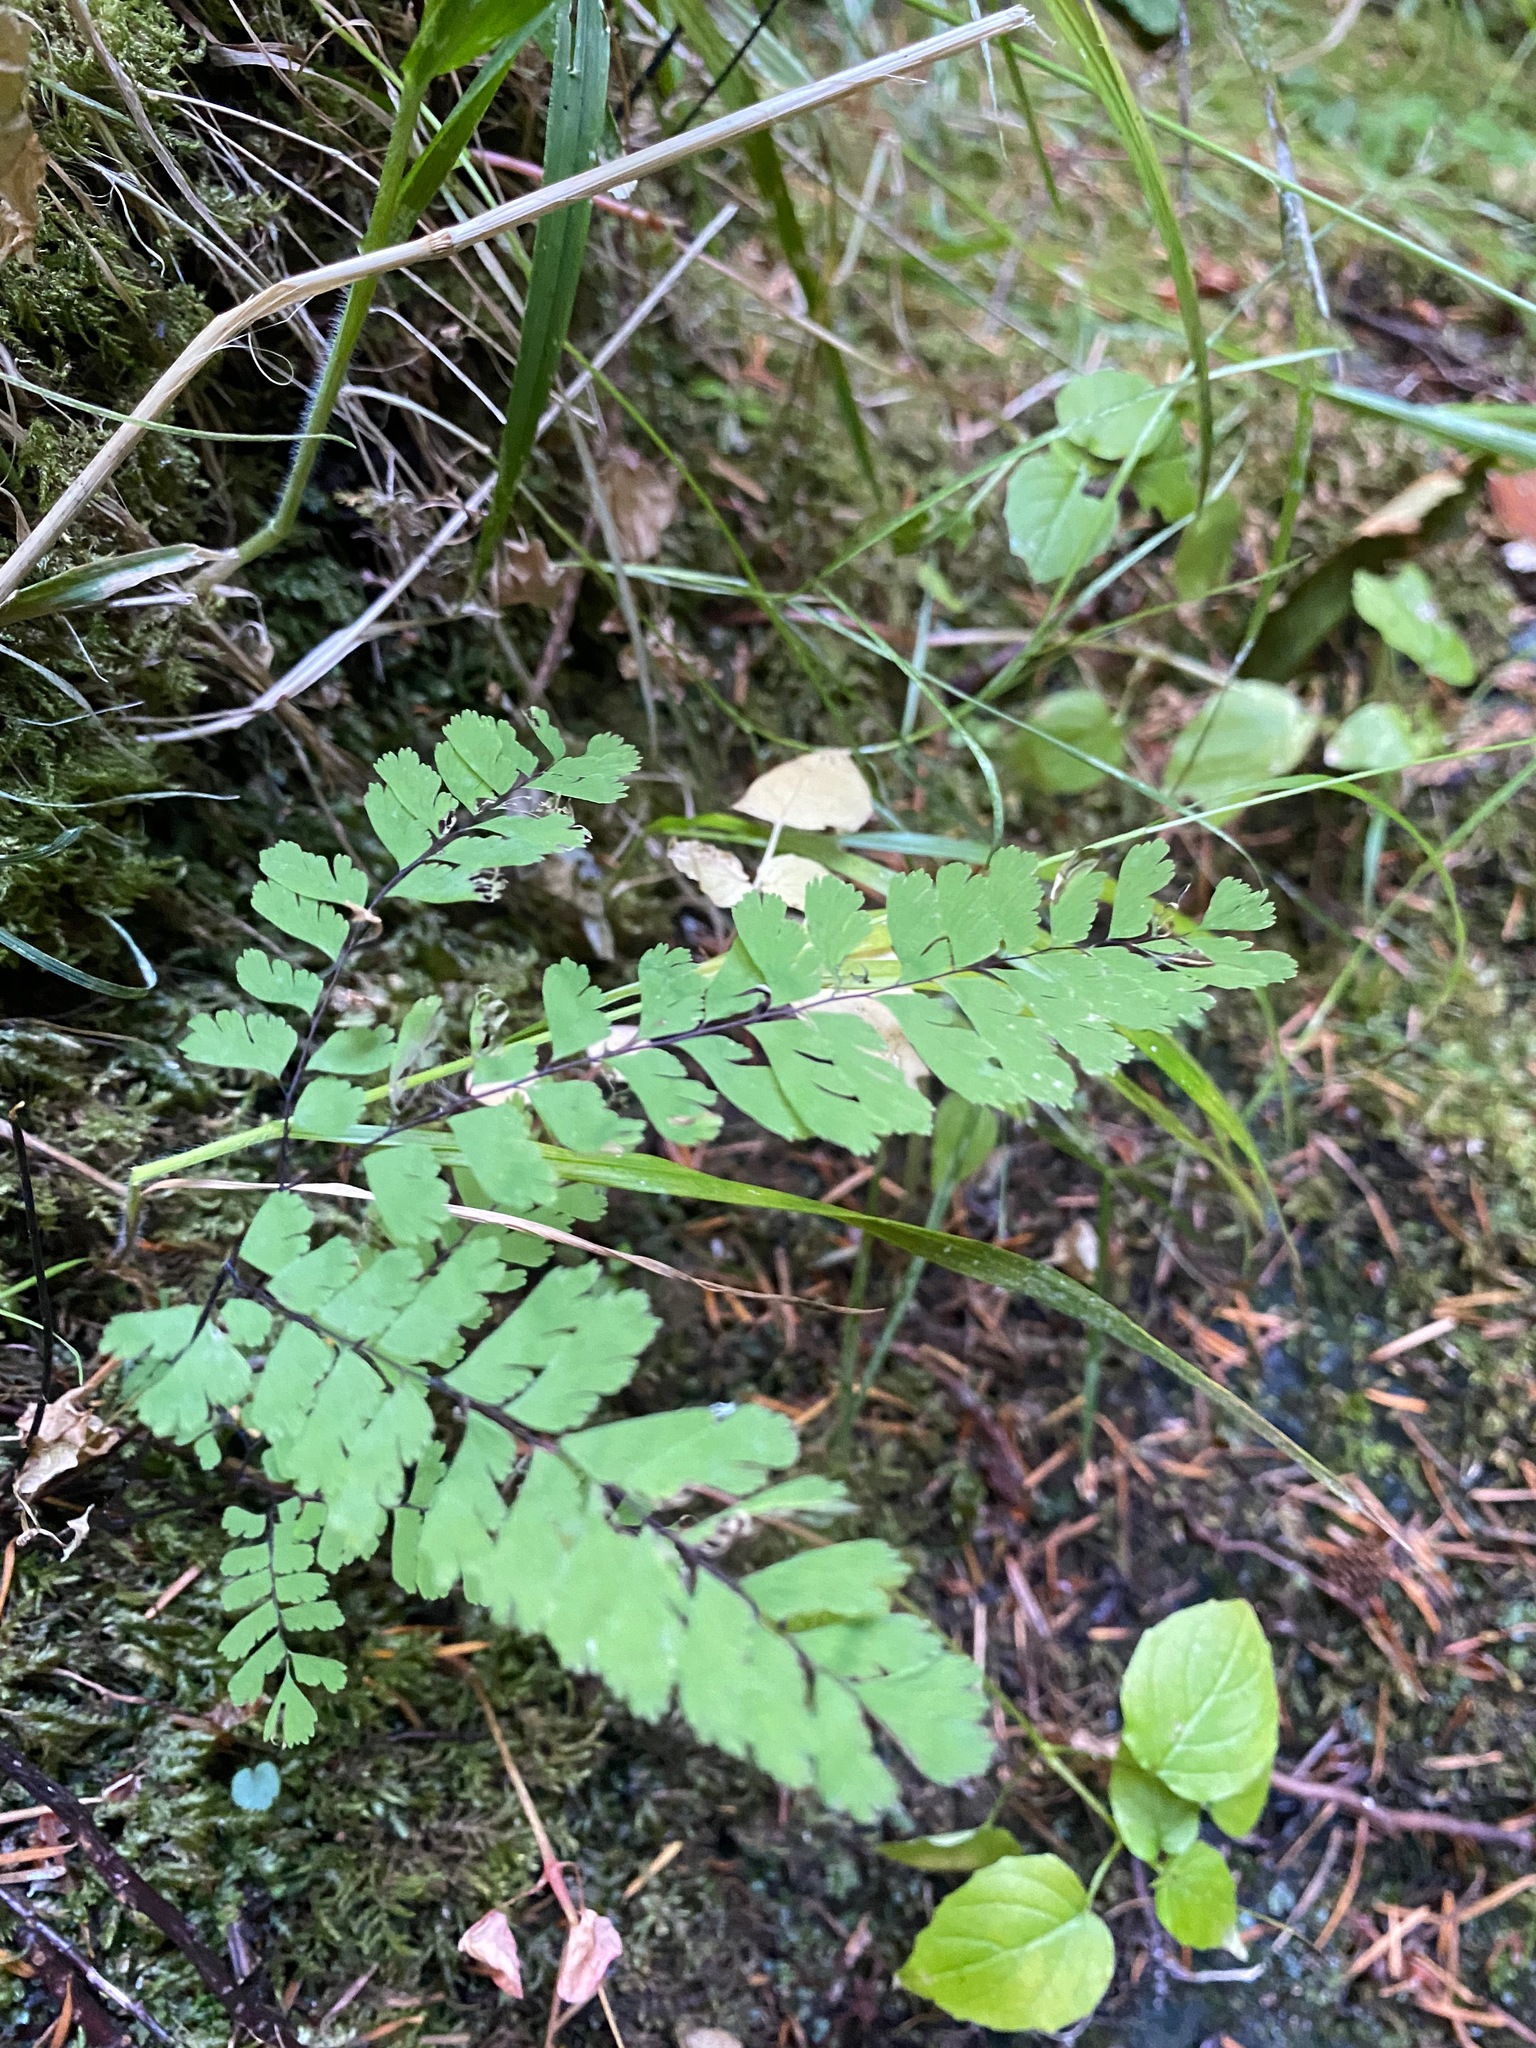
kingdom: Plantae
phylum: Tracheophyta
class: Polypodiopsida
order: Polypodiales
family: Pteridaceae
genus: Adiantum
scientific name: Adiantum aleuticum
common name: Aleutian maidenhair fern
